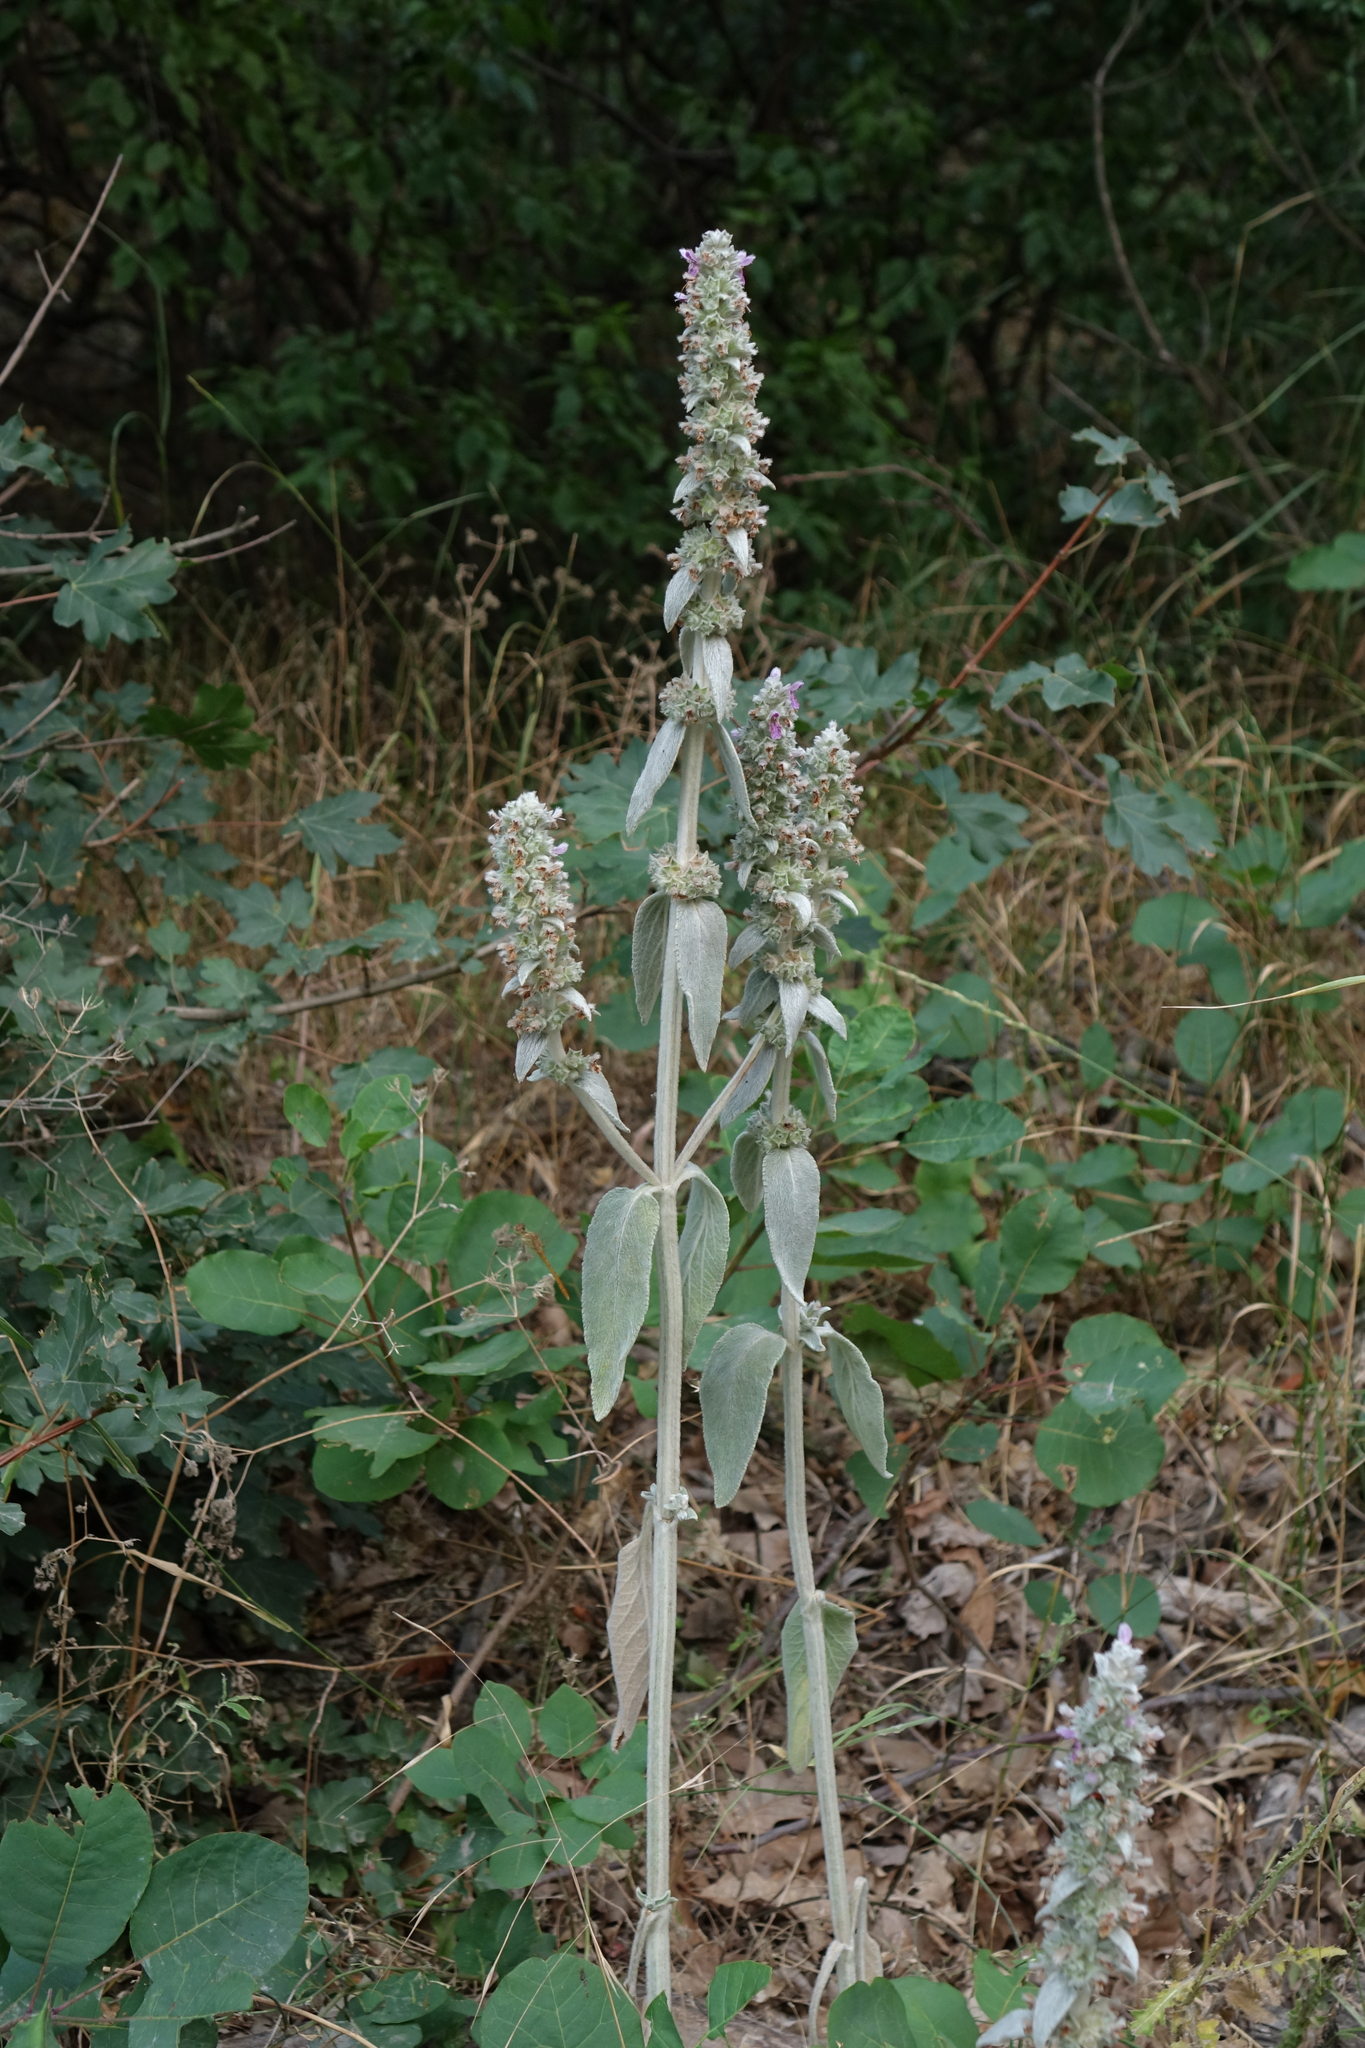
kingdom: Plantae
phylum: Tracheophyta
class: Magnoliopsida
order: Lamiales
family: Lamiaceae
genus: Stachys
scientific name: Stachys byzantina
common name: Lamb's-ear
